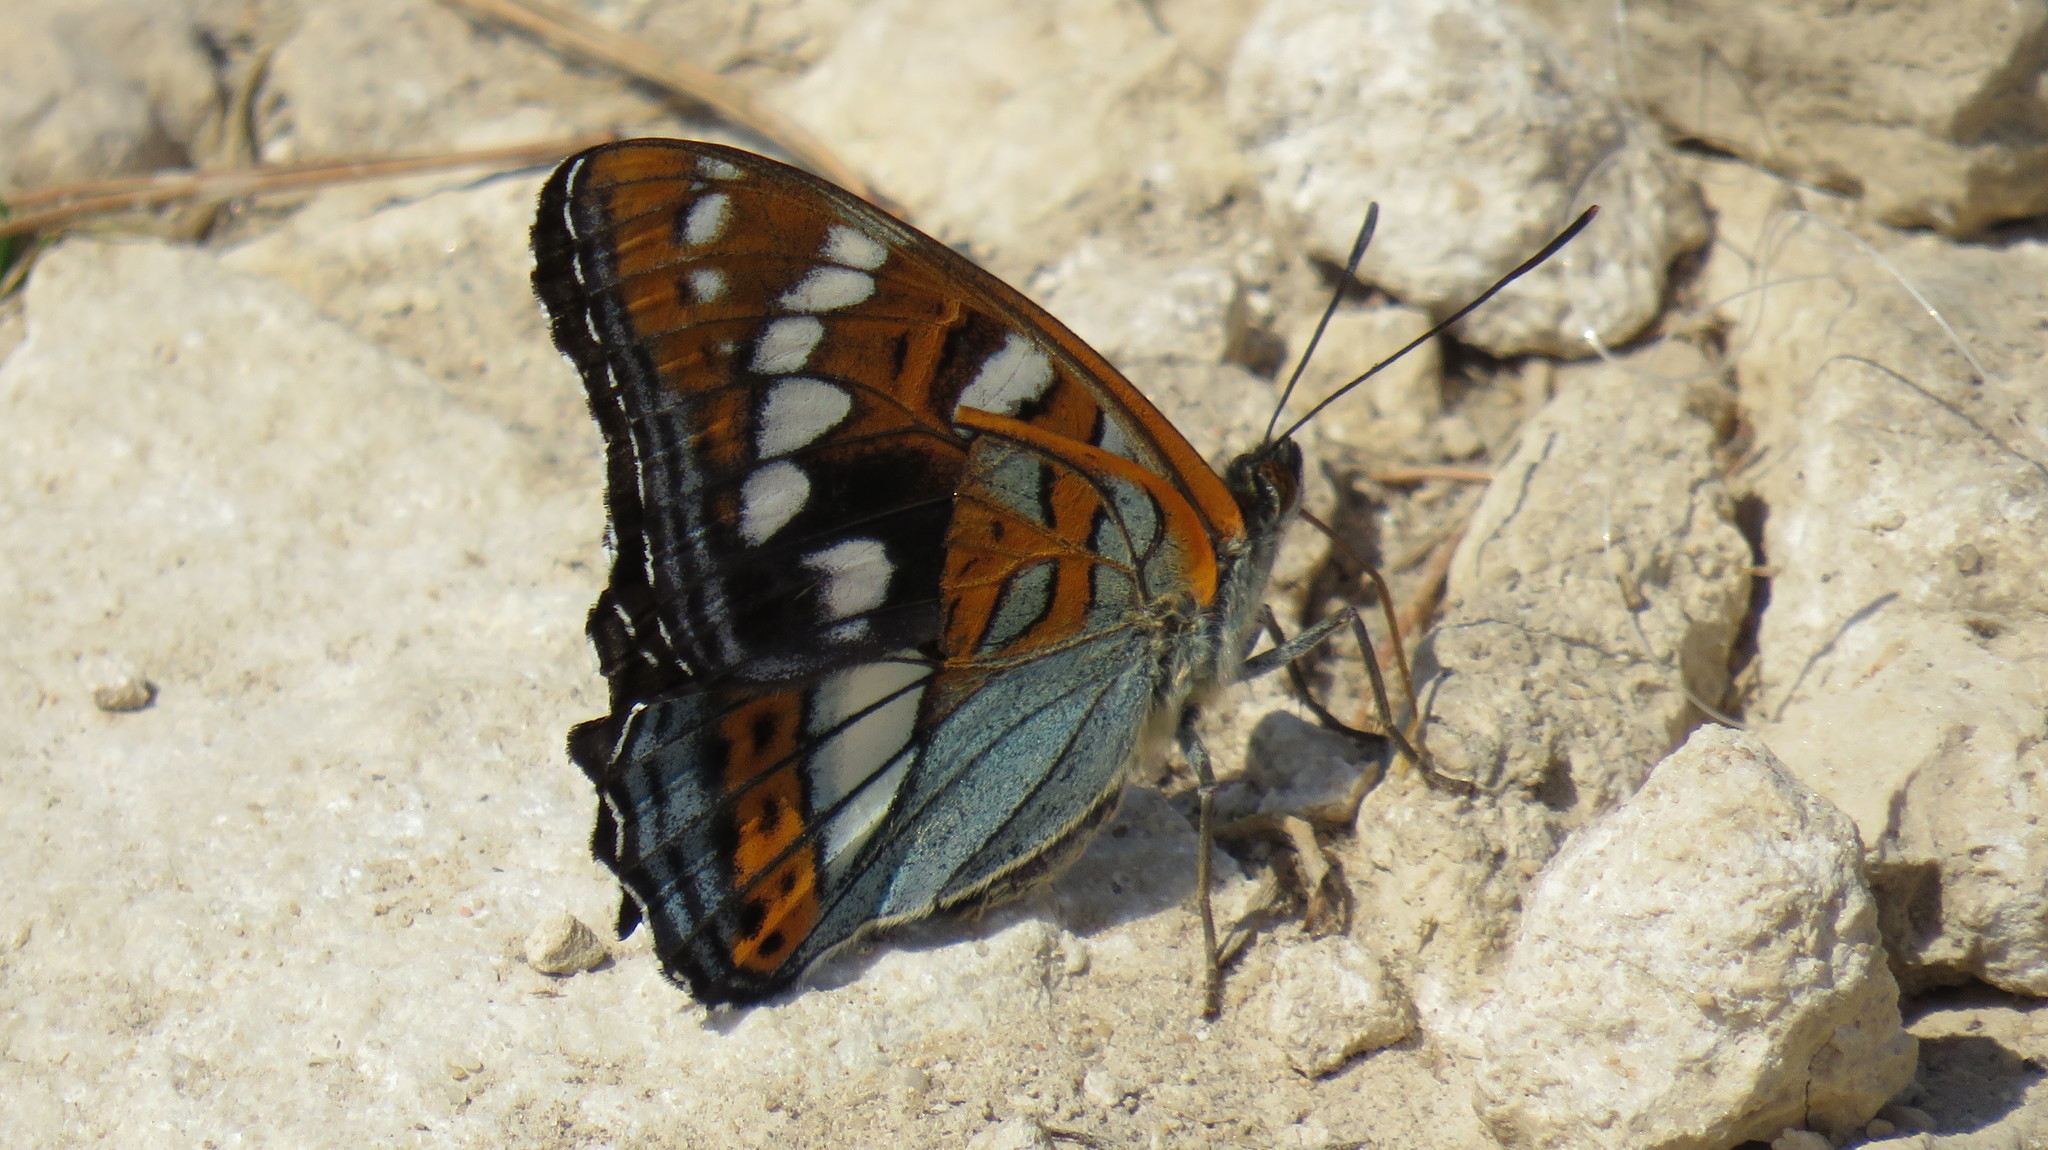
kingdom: Animalia
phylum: Arthropoda
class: Insecta
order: Lepidoptera
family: Nymphalidae
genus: Limenitis
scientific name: Limenitis populi
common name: Poplar admiral
